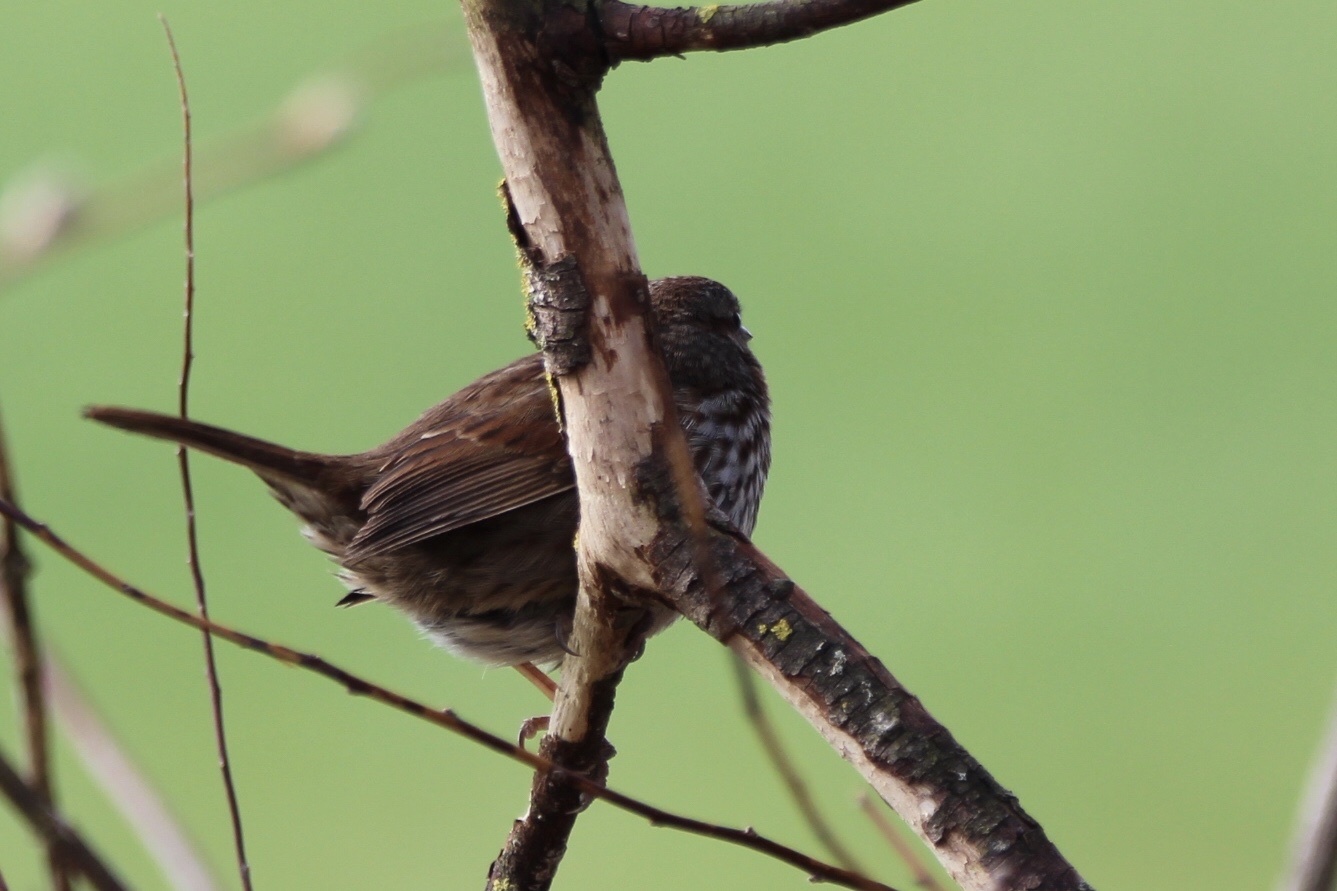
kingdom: Animalia
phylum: Chordata
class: Aves
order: Passeriformes
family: Passerellidae
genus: Passerella
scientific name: Passerella iliaca
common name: Fox sparrow
